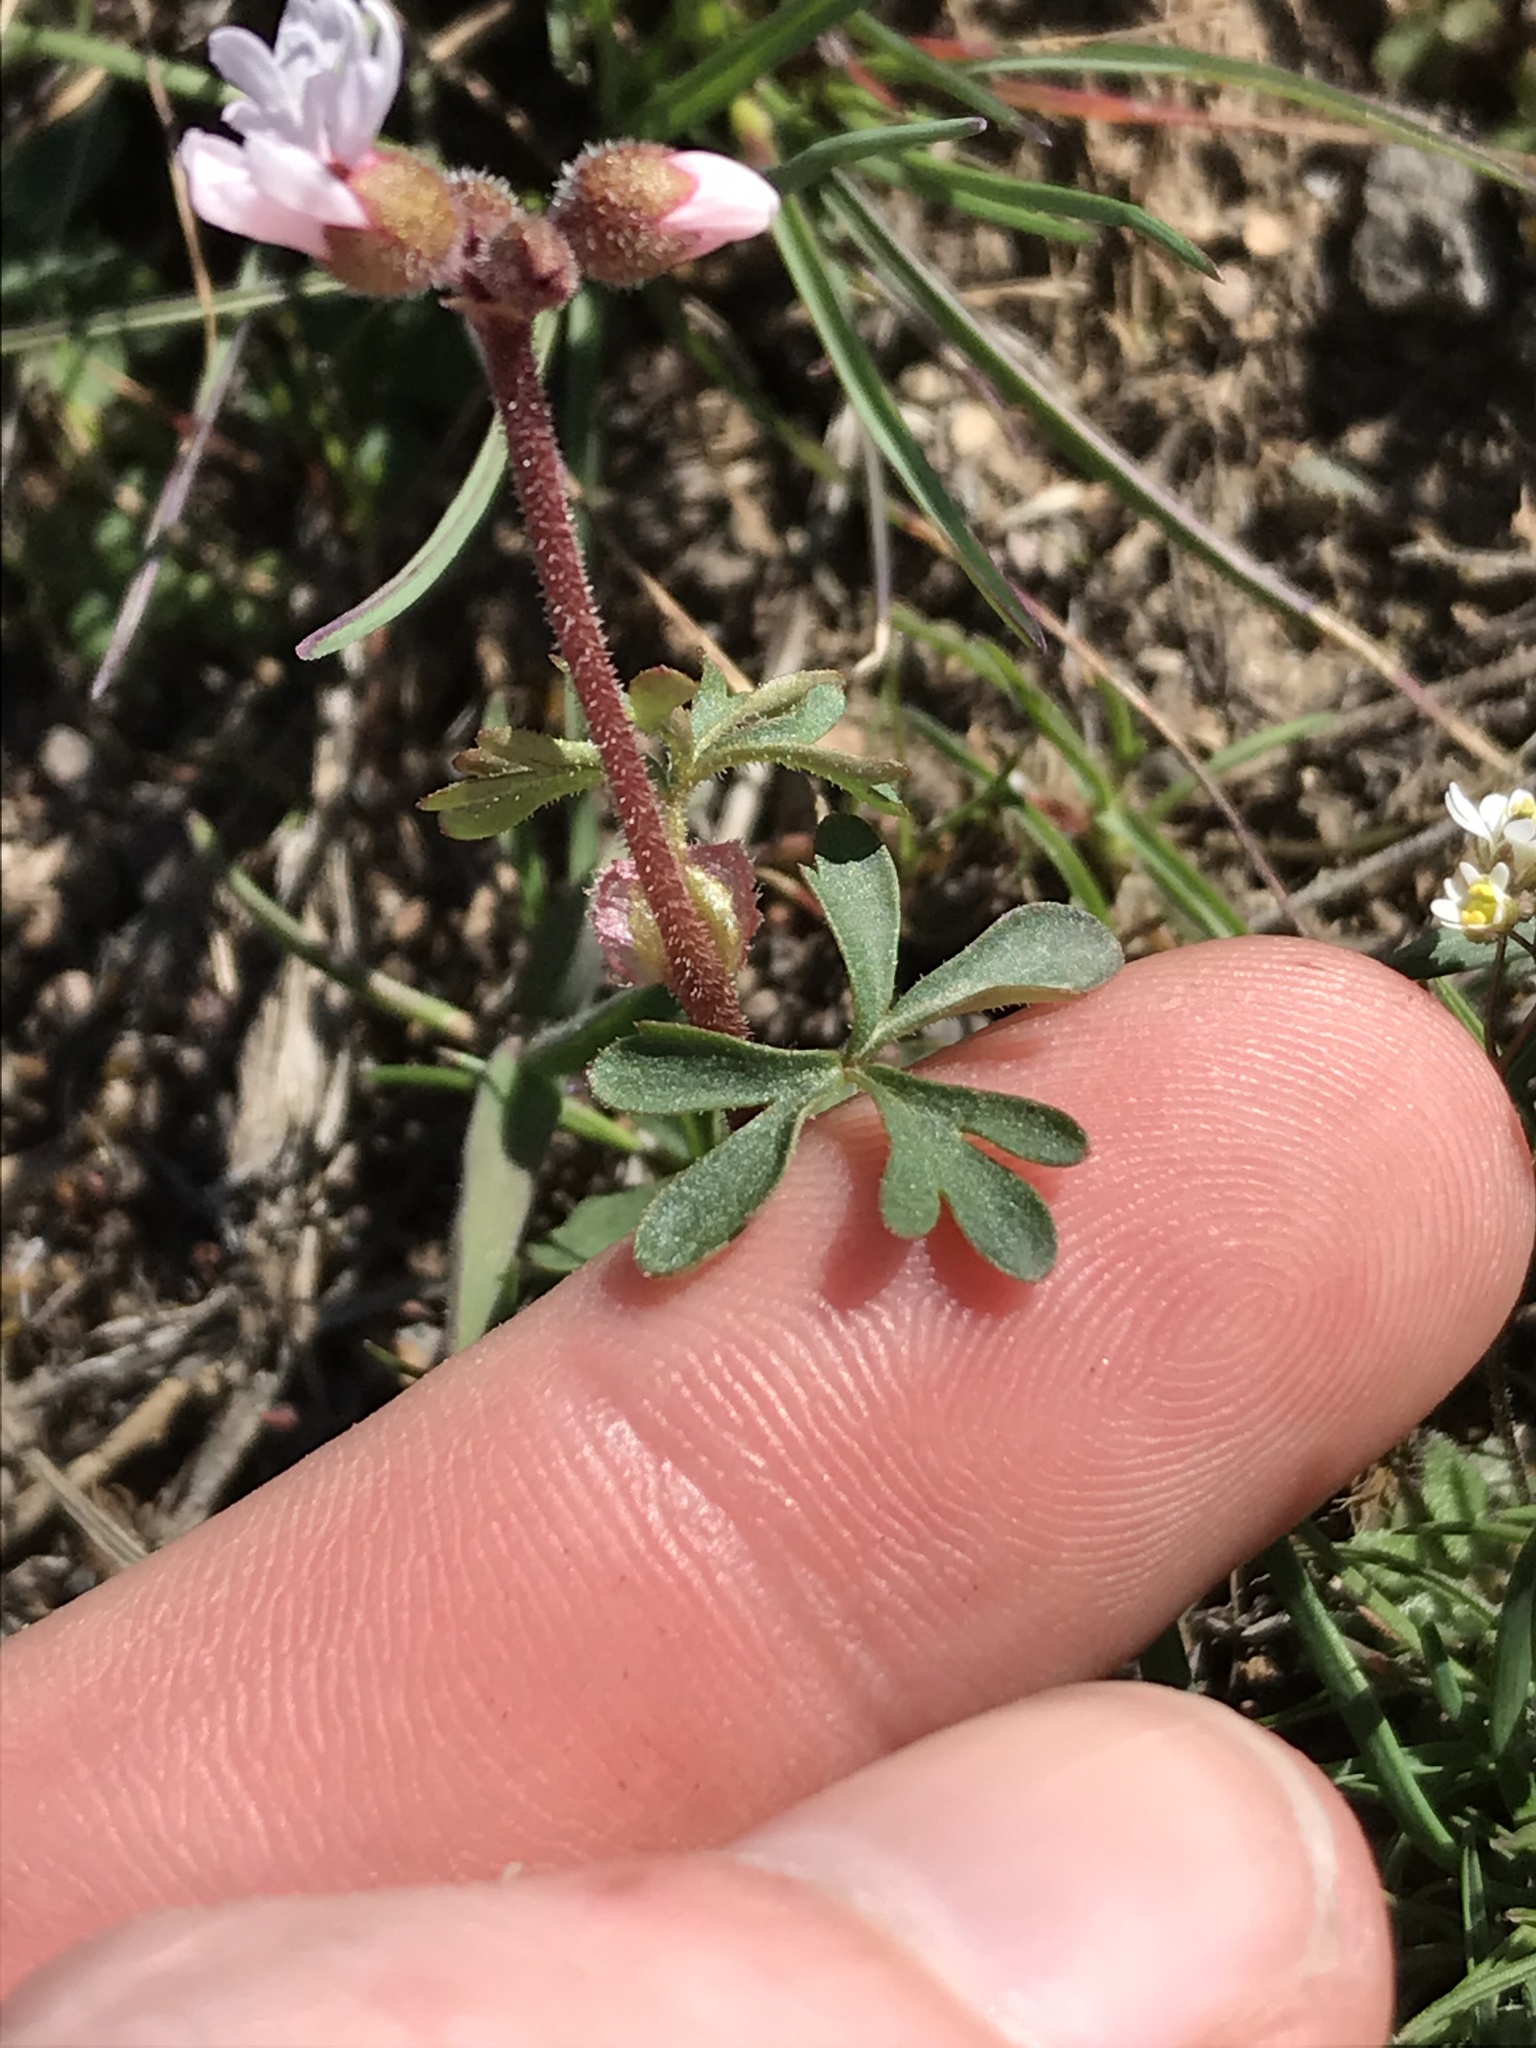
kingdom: Plantae
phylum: Tracheophyta
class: Magnoliopsida
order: Saxifragales
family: Saxifragaceae
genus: Lithophragma
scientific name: Lithophragma glabrum
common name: Bulbous prairie-star
